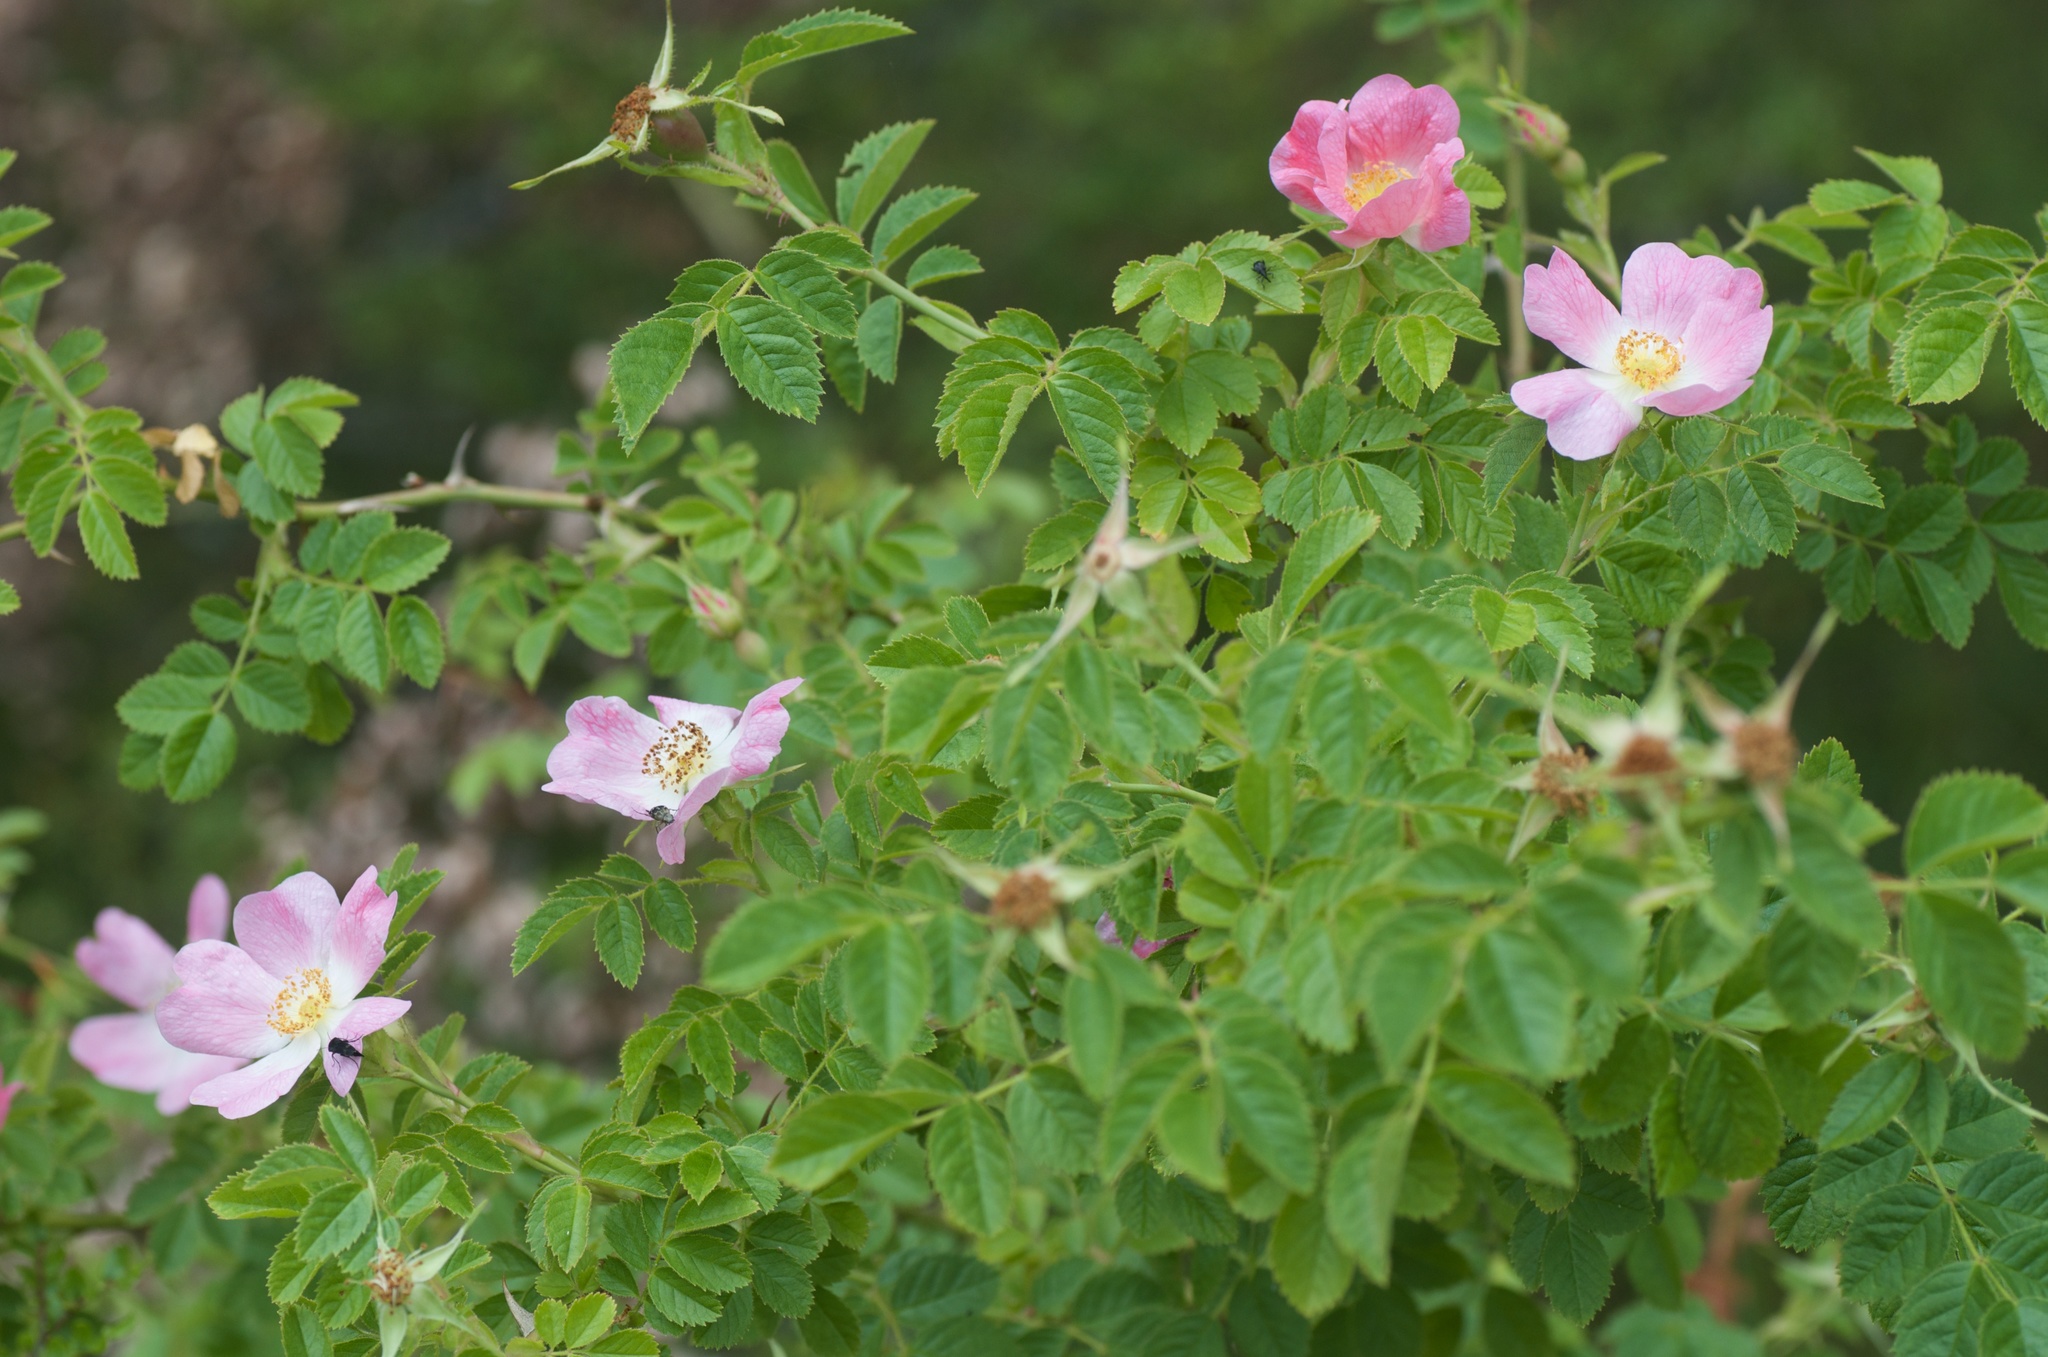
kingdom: Plantae
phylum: Tracheophyta
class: Magnoliopsida
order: Rosales
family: Rosaceae
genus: Rosa
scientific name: Rosa rubiginosa
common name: Sweet-briar
